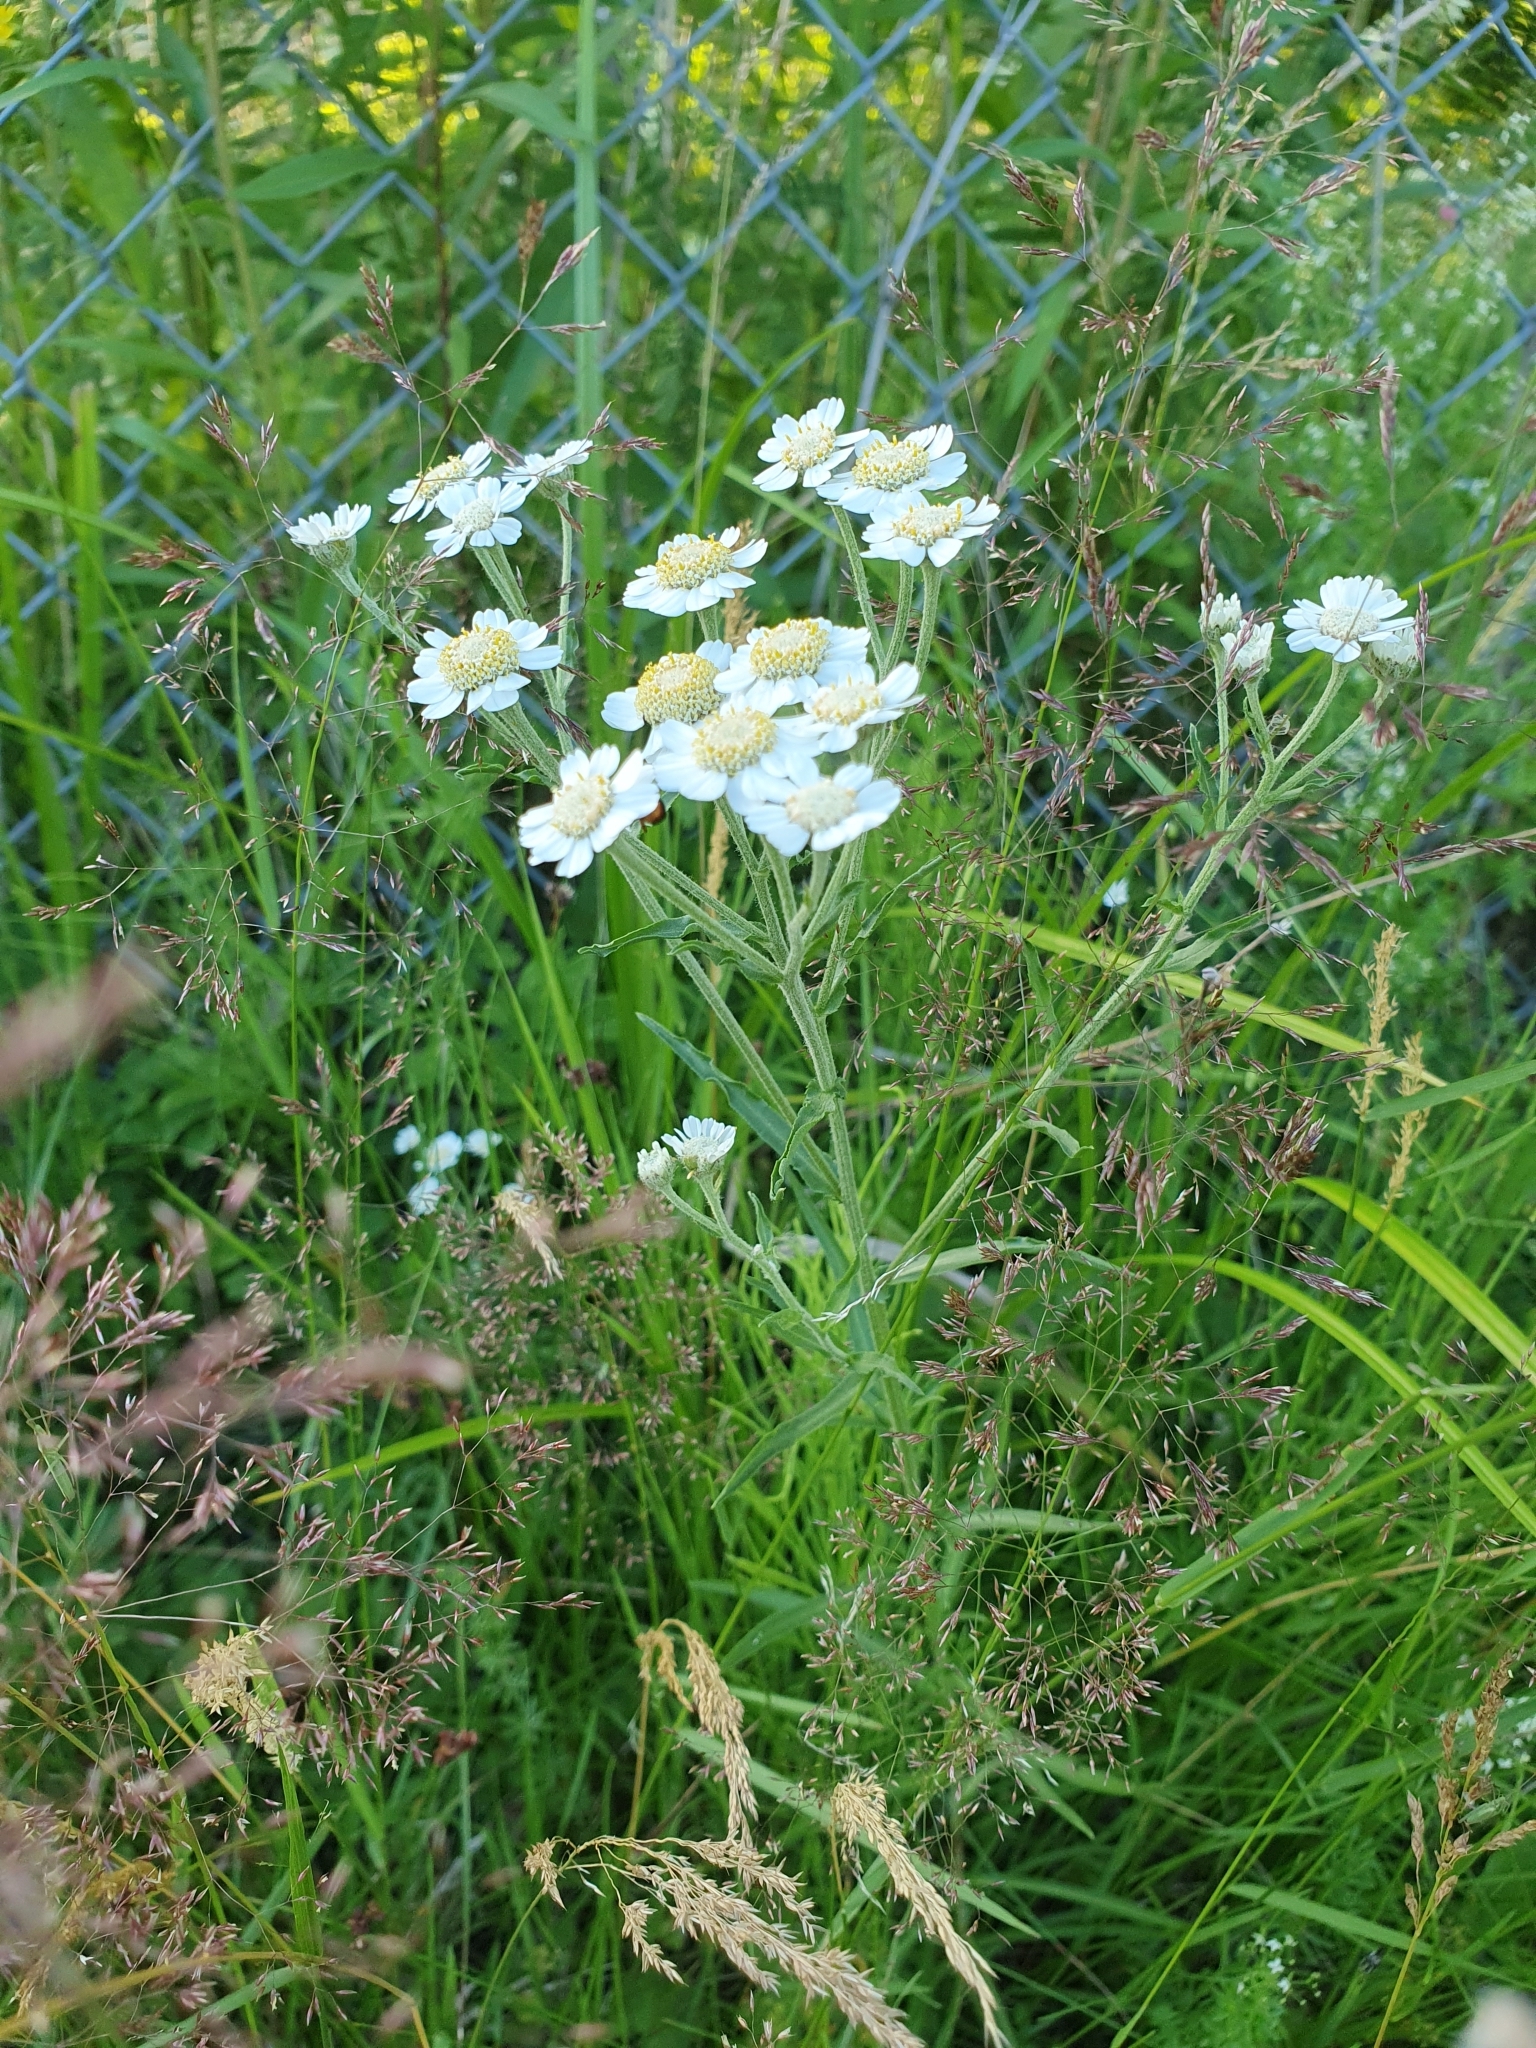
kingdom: Plantae
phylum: Tracheophyta
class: Magnoliopsida
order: Asterales
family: Asteraceae
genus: Achillea
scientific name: Achillea ptarmica
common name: Sneezeweed
